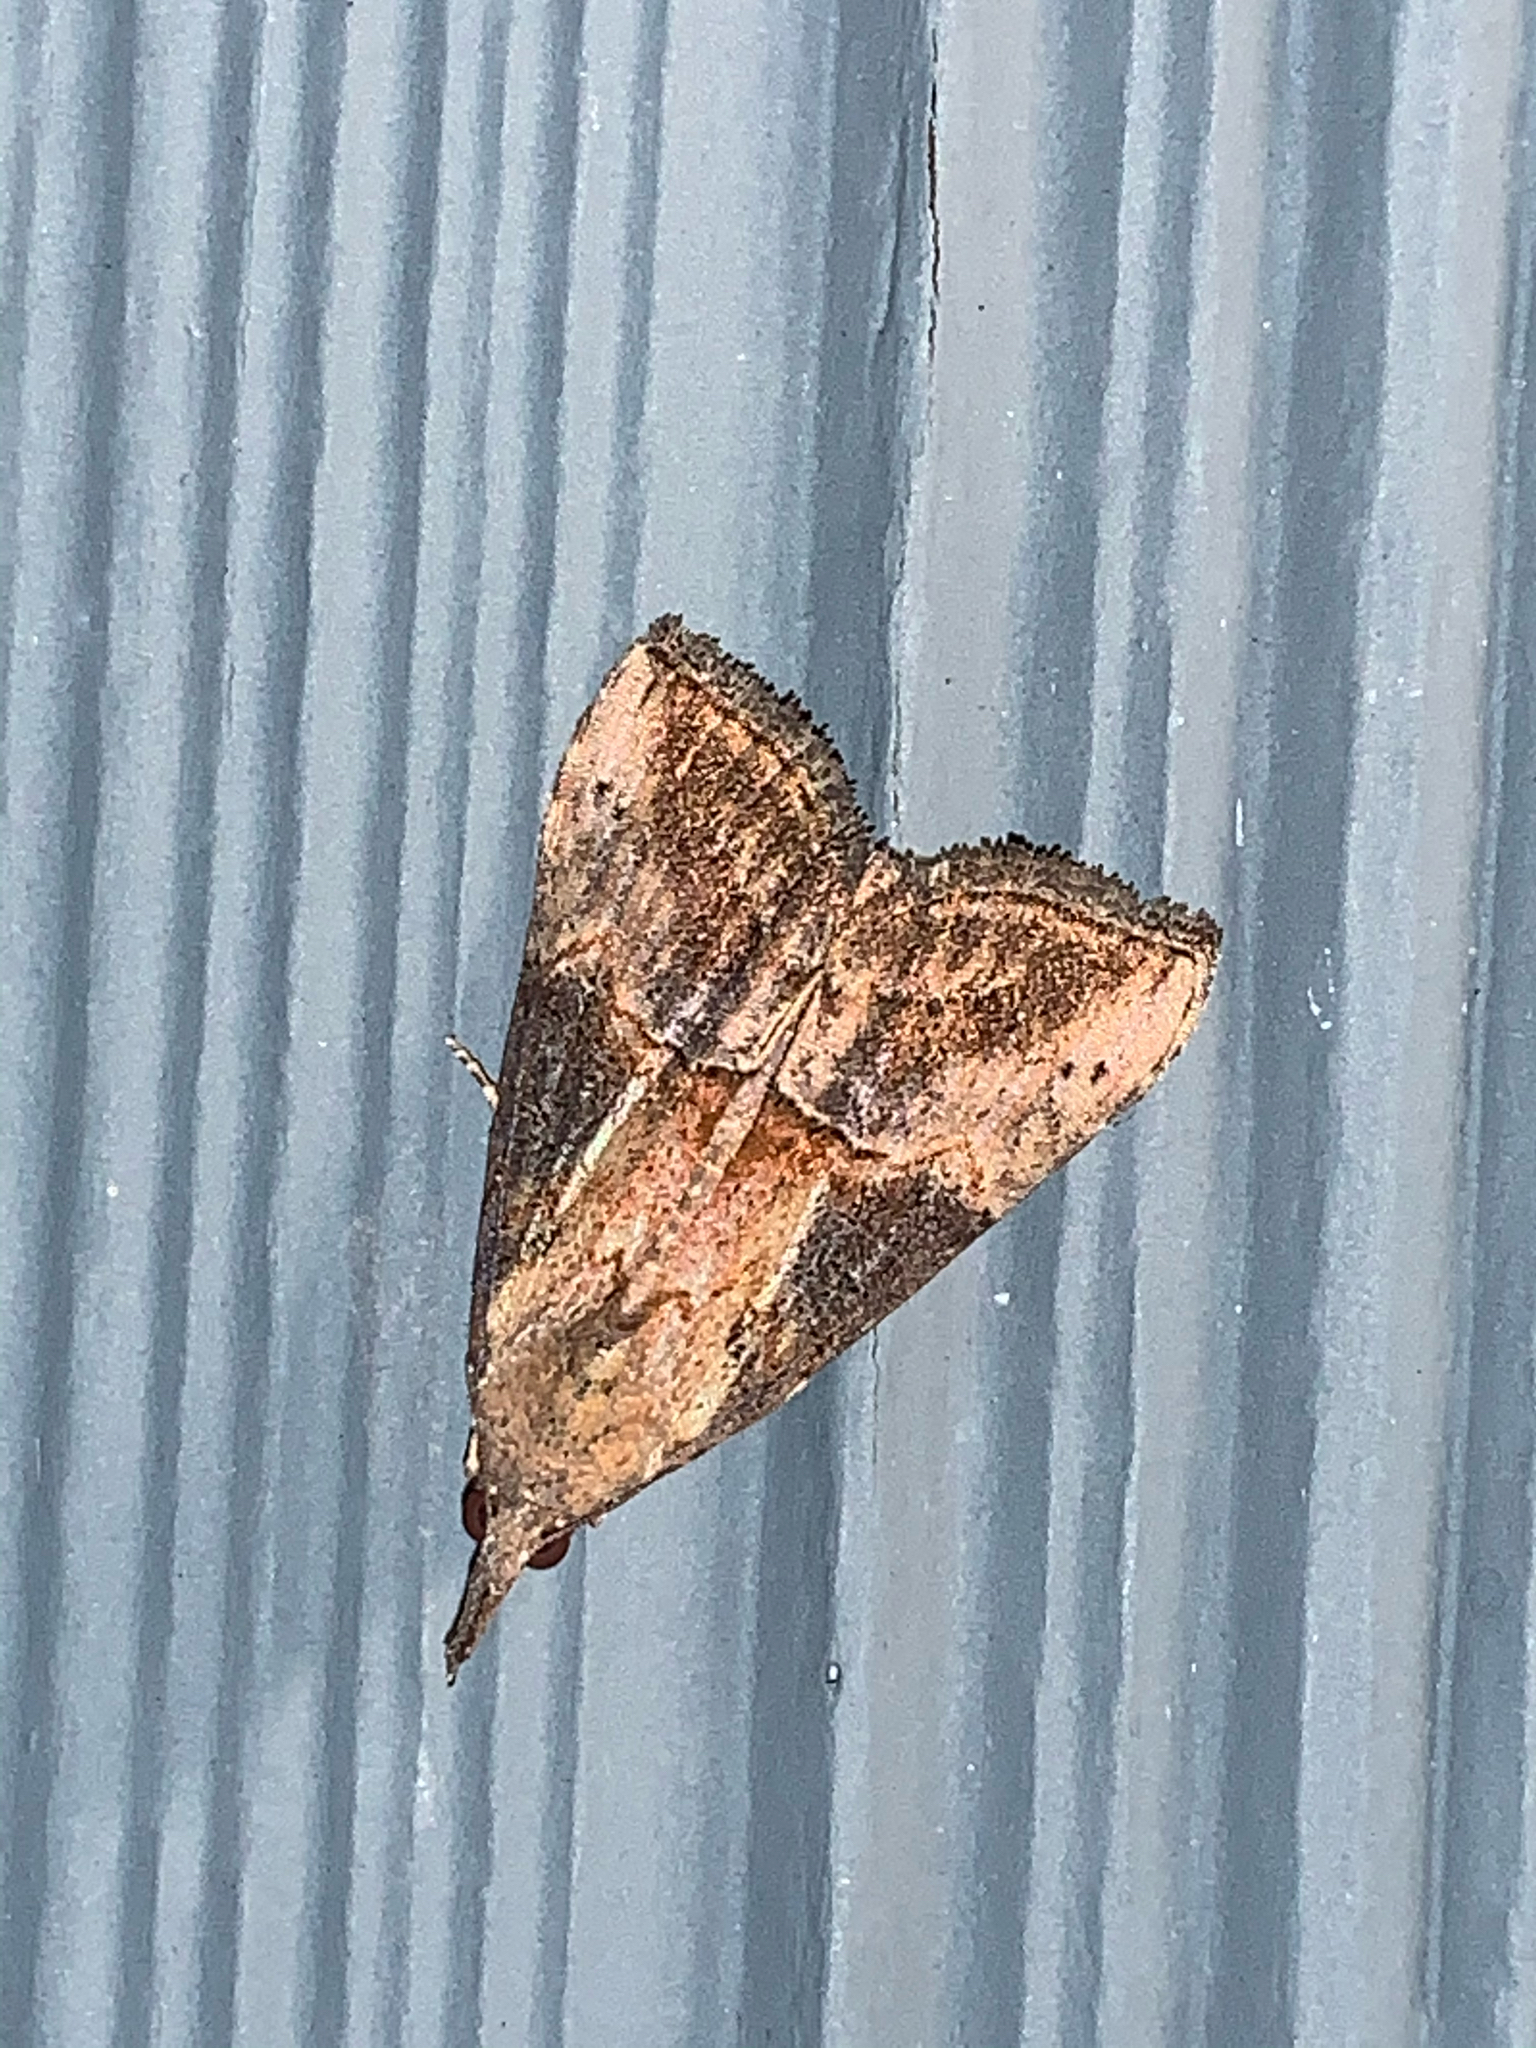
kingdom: Animalia
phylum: Arthropoda
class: Insecta
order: Lepidoptera
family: Erebidae
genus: Hypena
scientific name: Hypena scabra
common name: Green cloverworm
